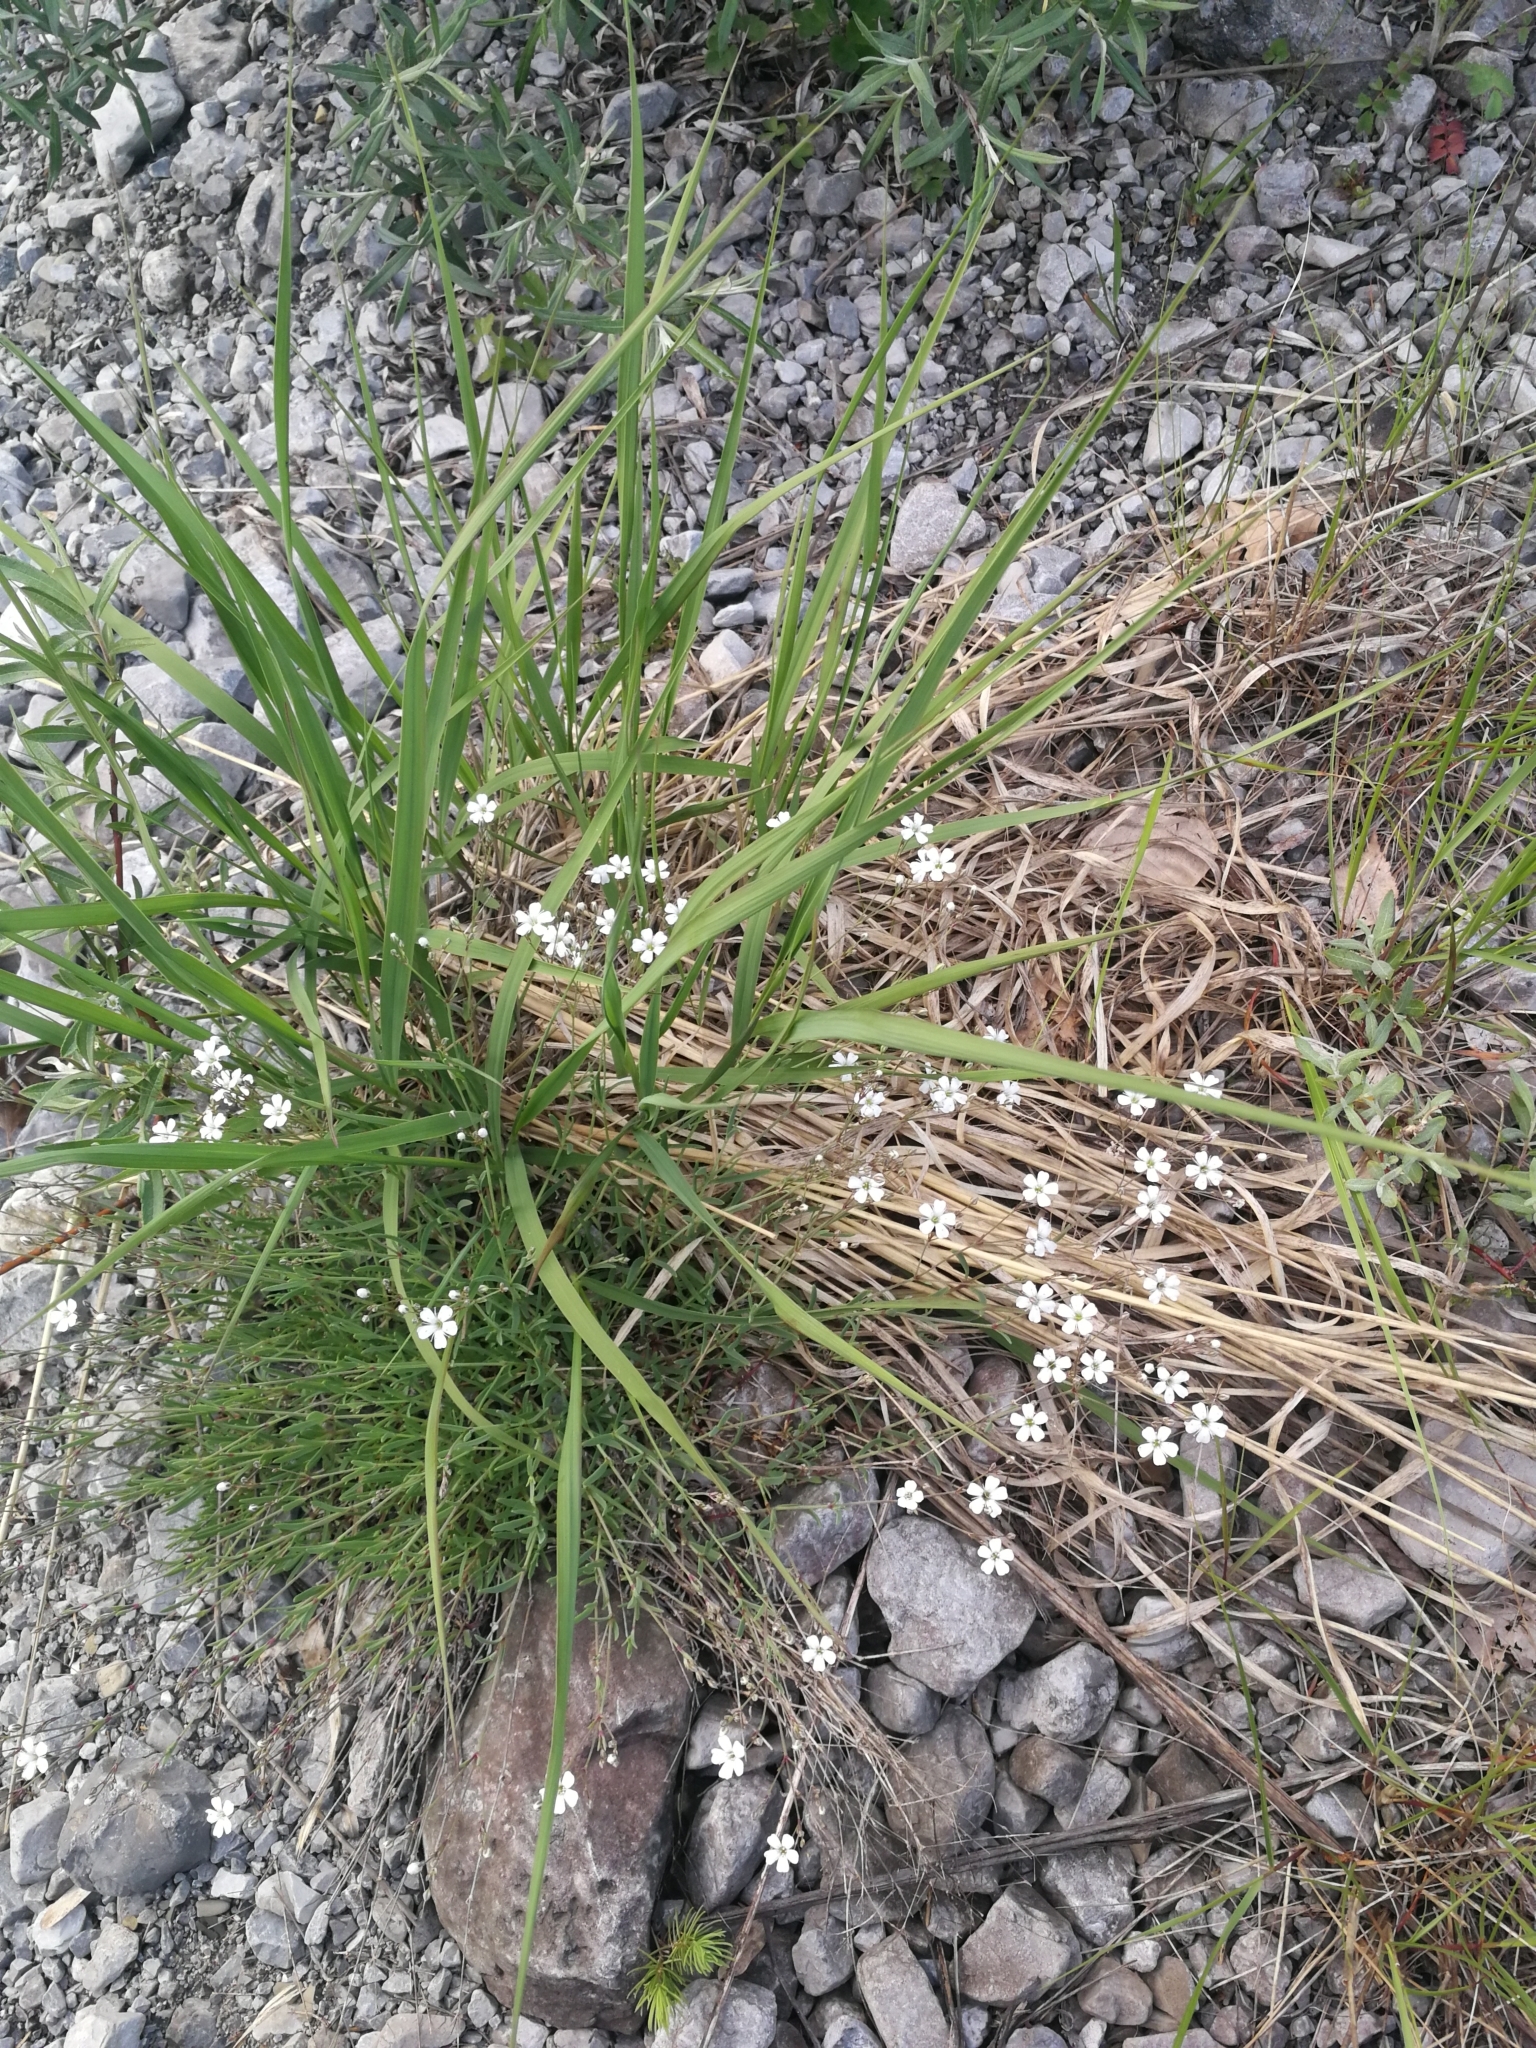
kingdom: Plantae
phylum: Tracheophyta
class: Magnoliopsida
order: Caryophyllales
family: Caryophyllaceae
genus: Gypsophila
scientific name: Gypsophila repens
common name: Creeping baby's-breath
